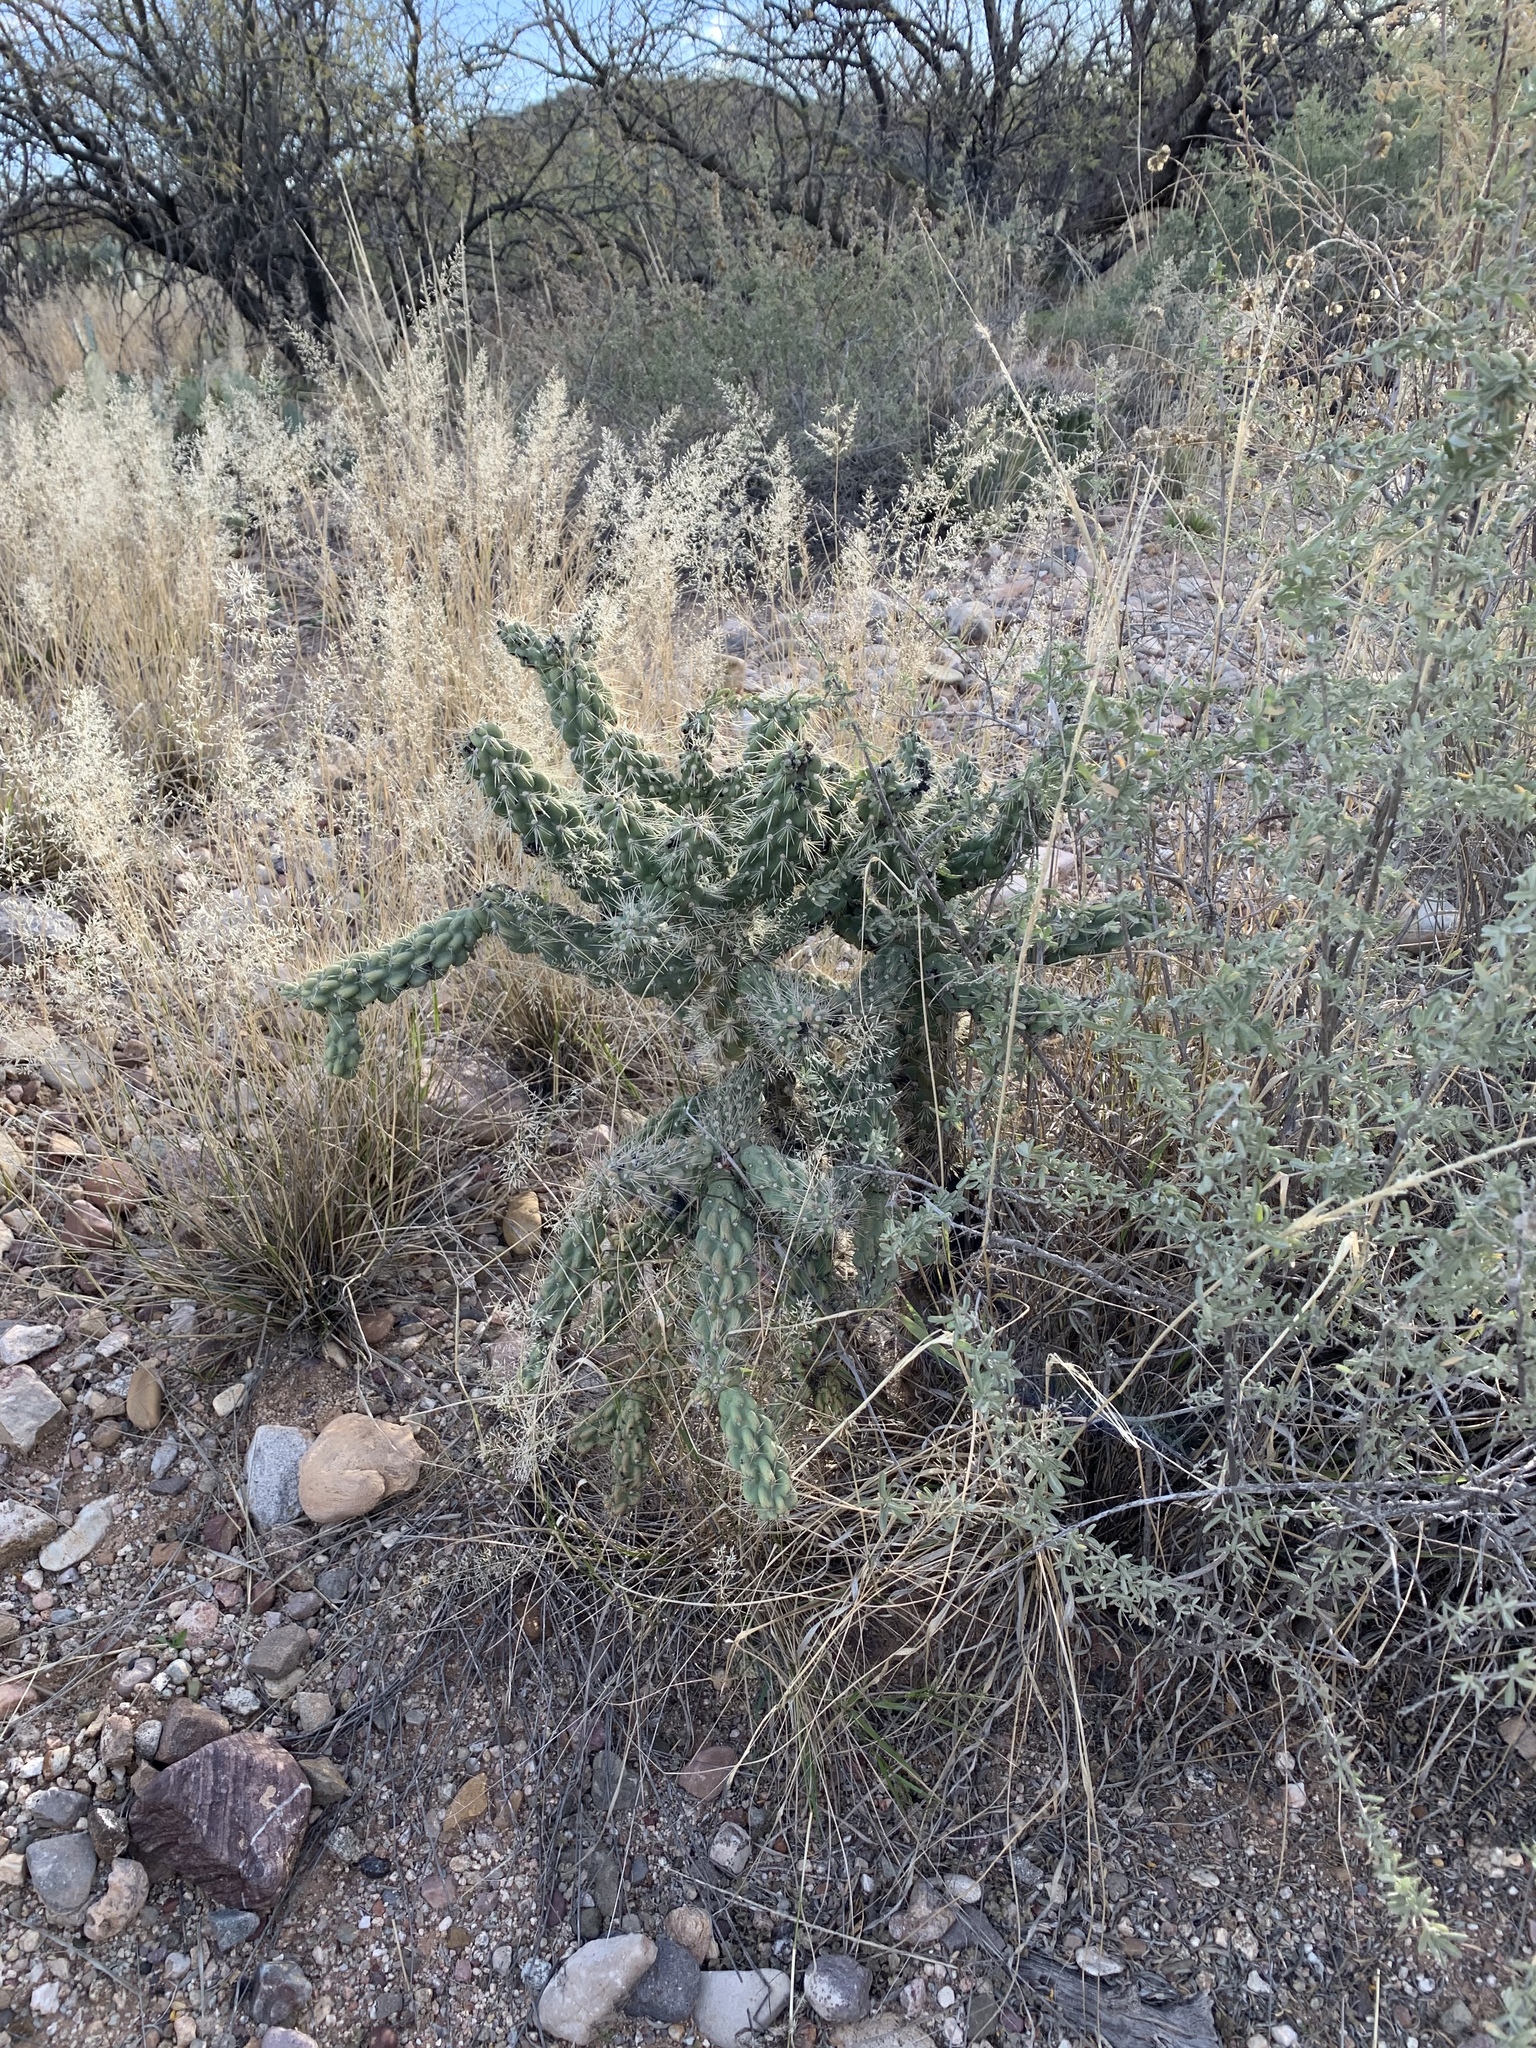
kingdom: Plantae
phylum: Tracheophyta
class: Magnoliopsida
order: Caryophyllales
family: Cactaceae
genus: Cylindropuntia
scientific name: Cylindropuntia fulgida
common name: Jumping cholla
